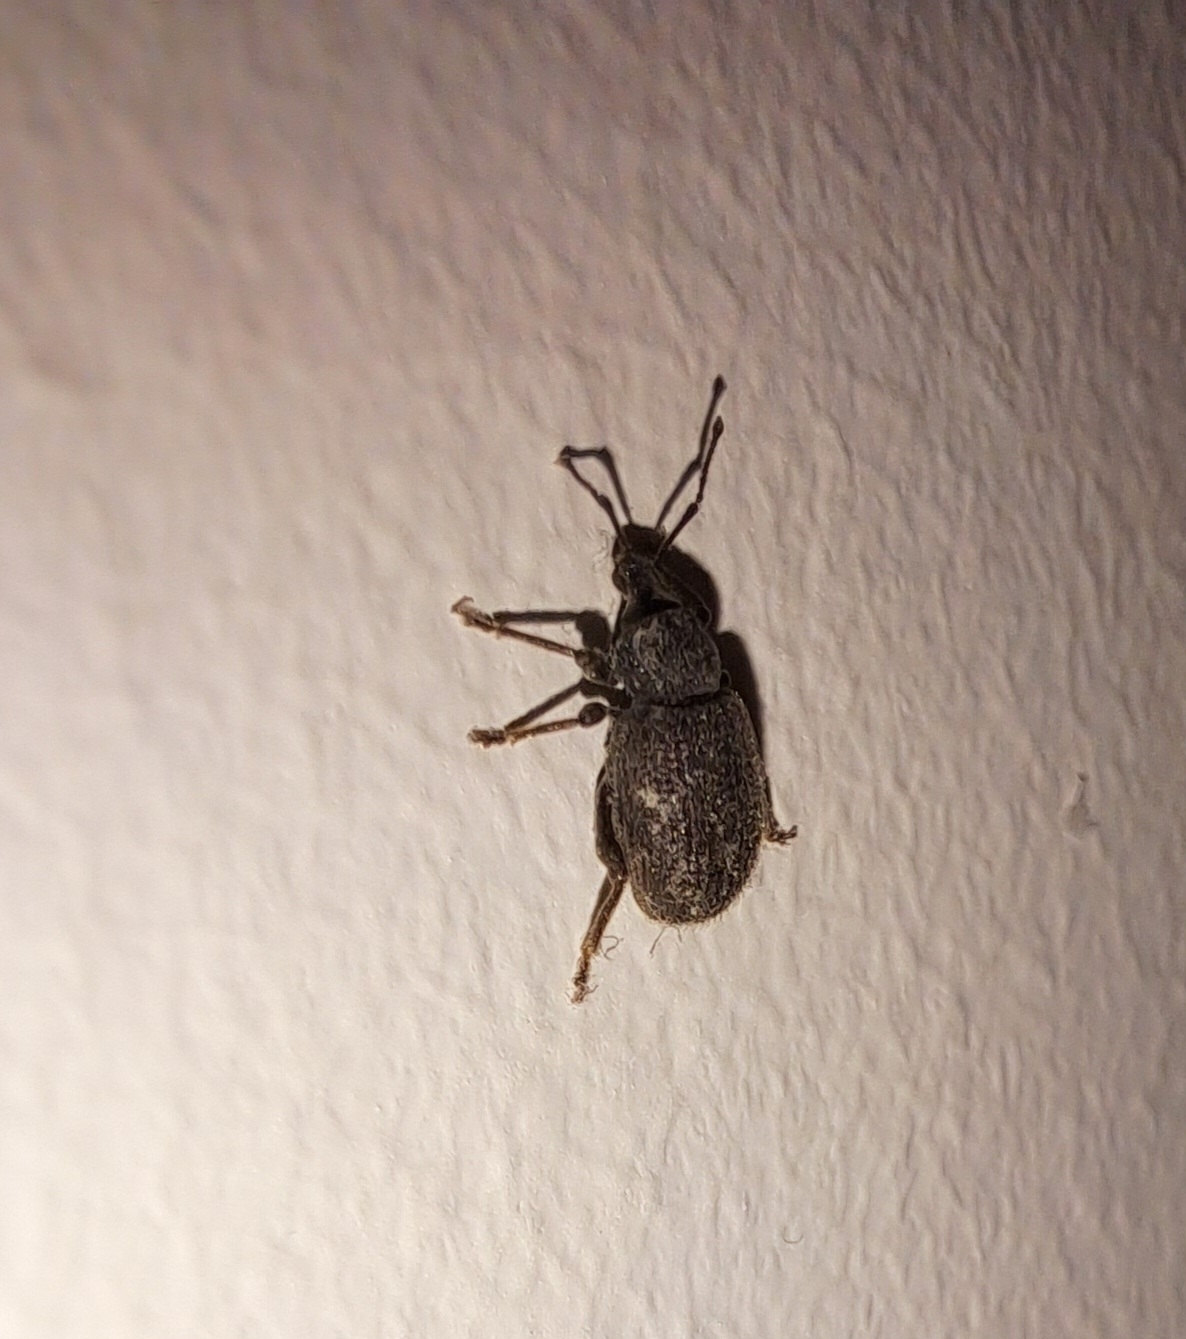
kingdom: Animalia
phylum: Arthropoda
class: Insecta
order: Coleoptera
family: Curculionidae
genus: Otiorhynchus
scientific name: Otiorhynchus rugosostriatus
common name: Weevil
